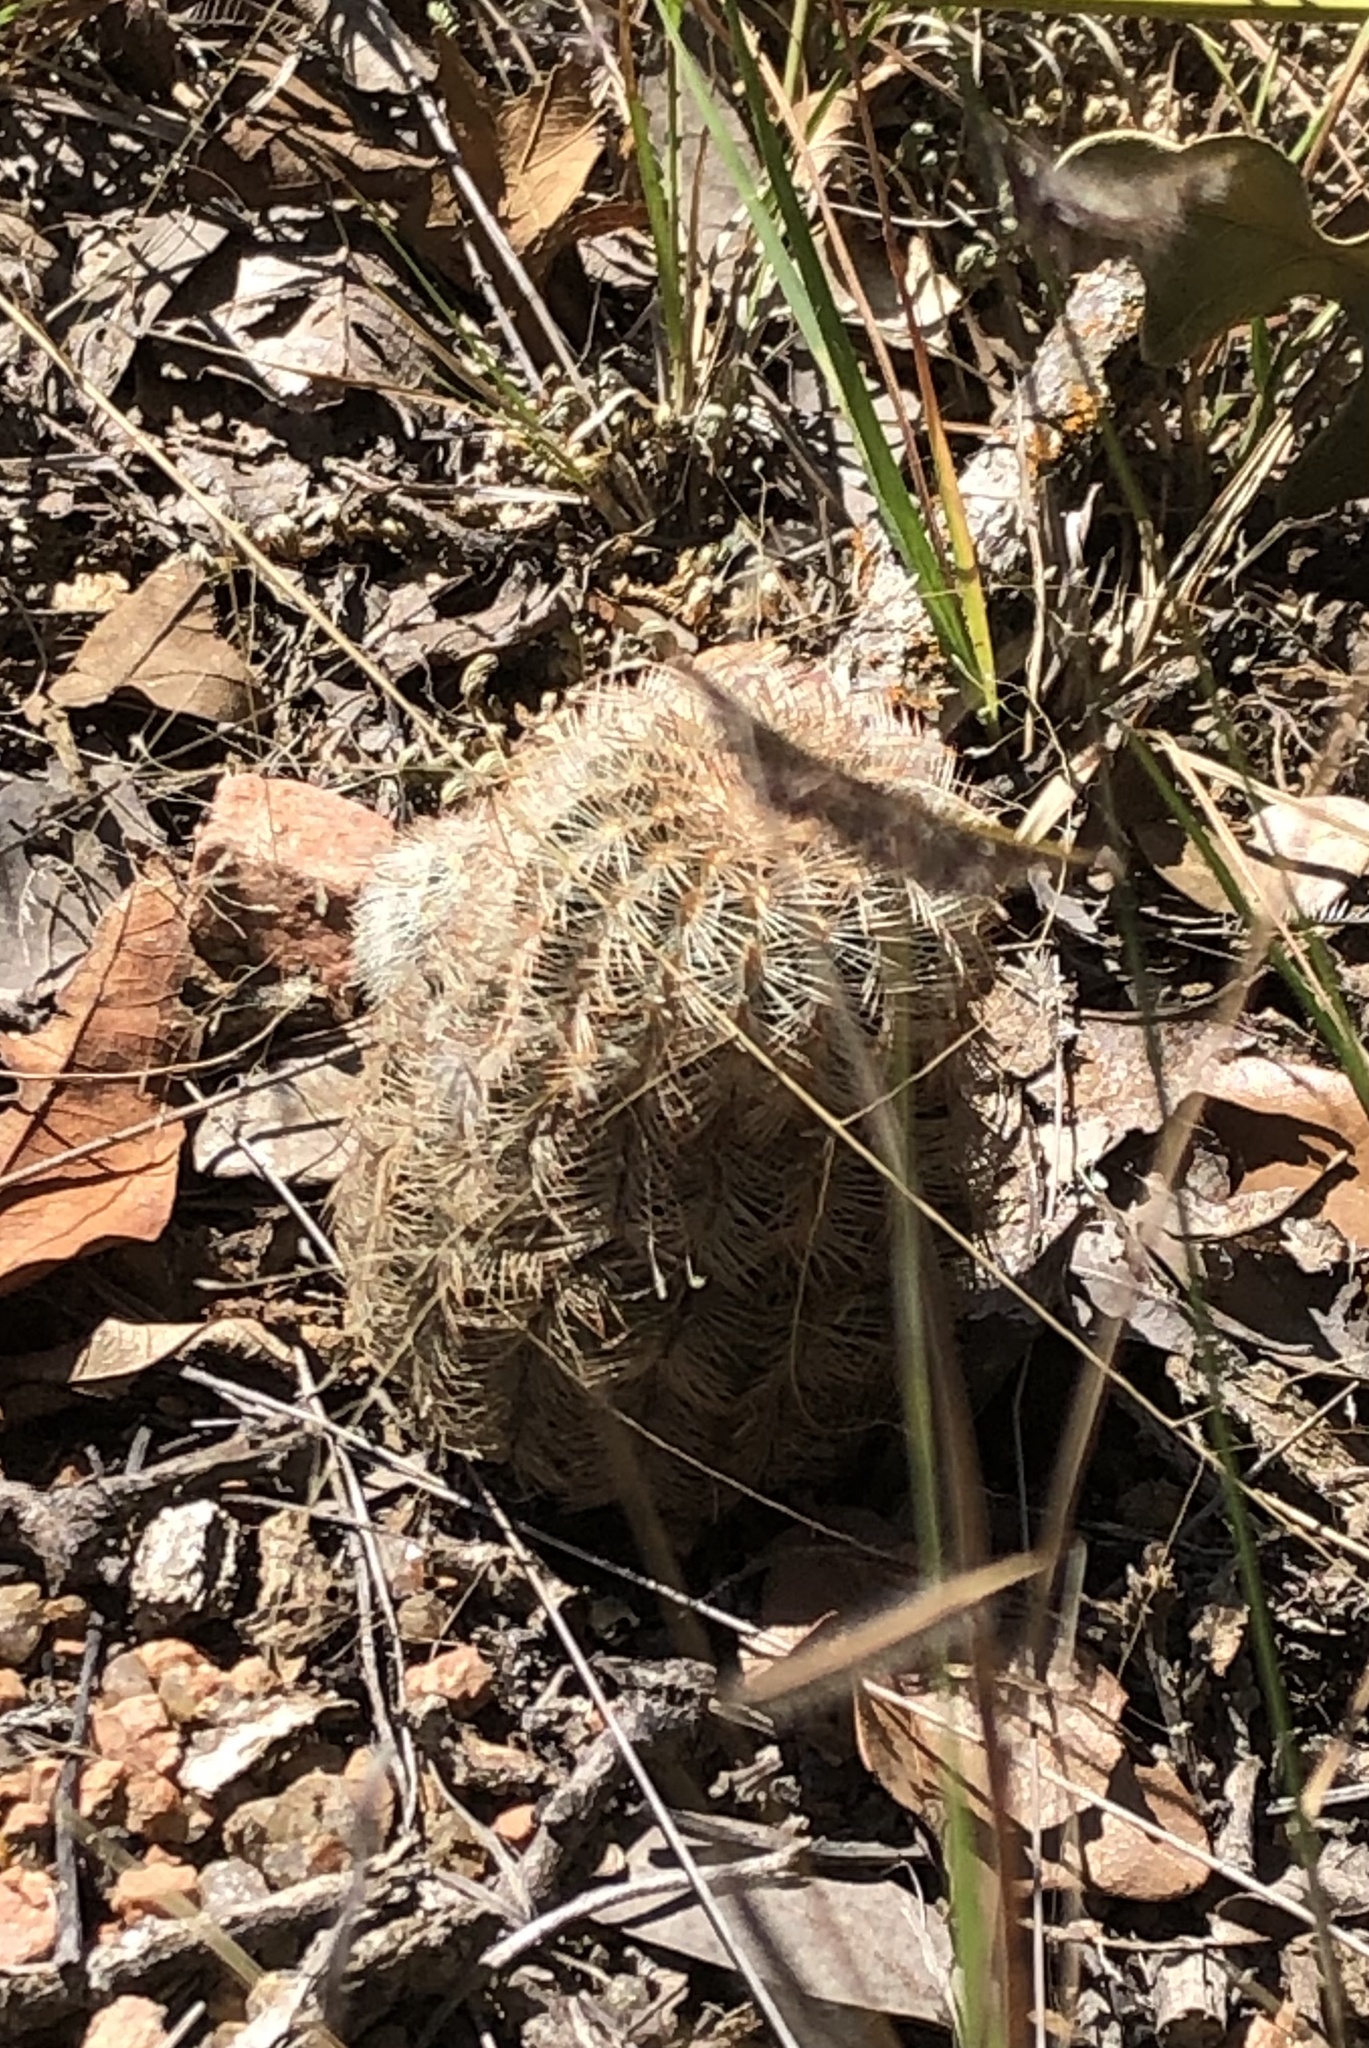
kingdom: Plantae
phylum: Tracheophyta
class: Magnoliopsida
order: Caryophyllales
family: Cactaceae
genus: Echinocereus
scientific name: Echinocereus reichenbachii
